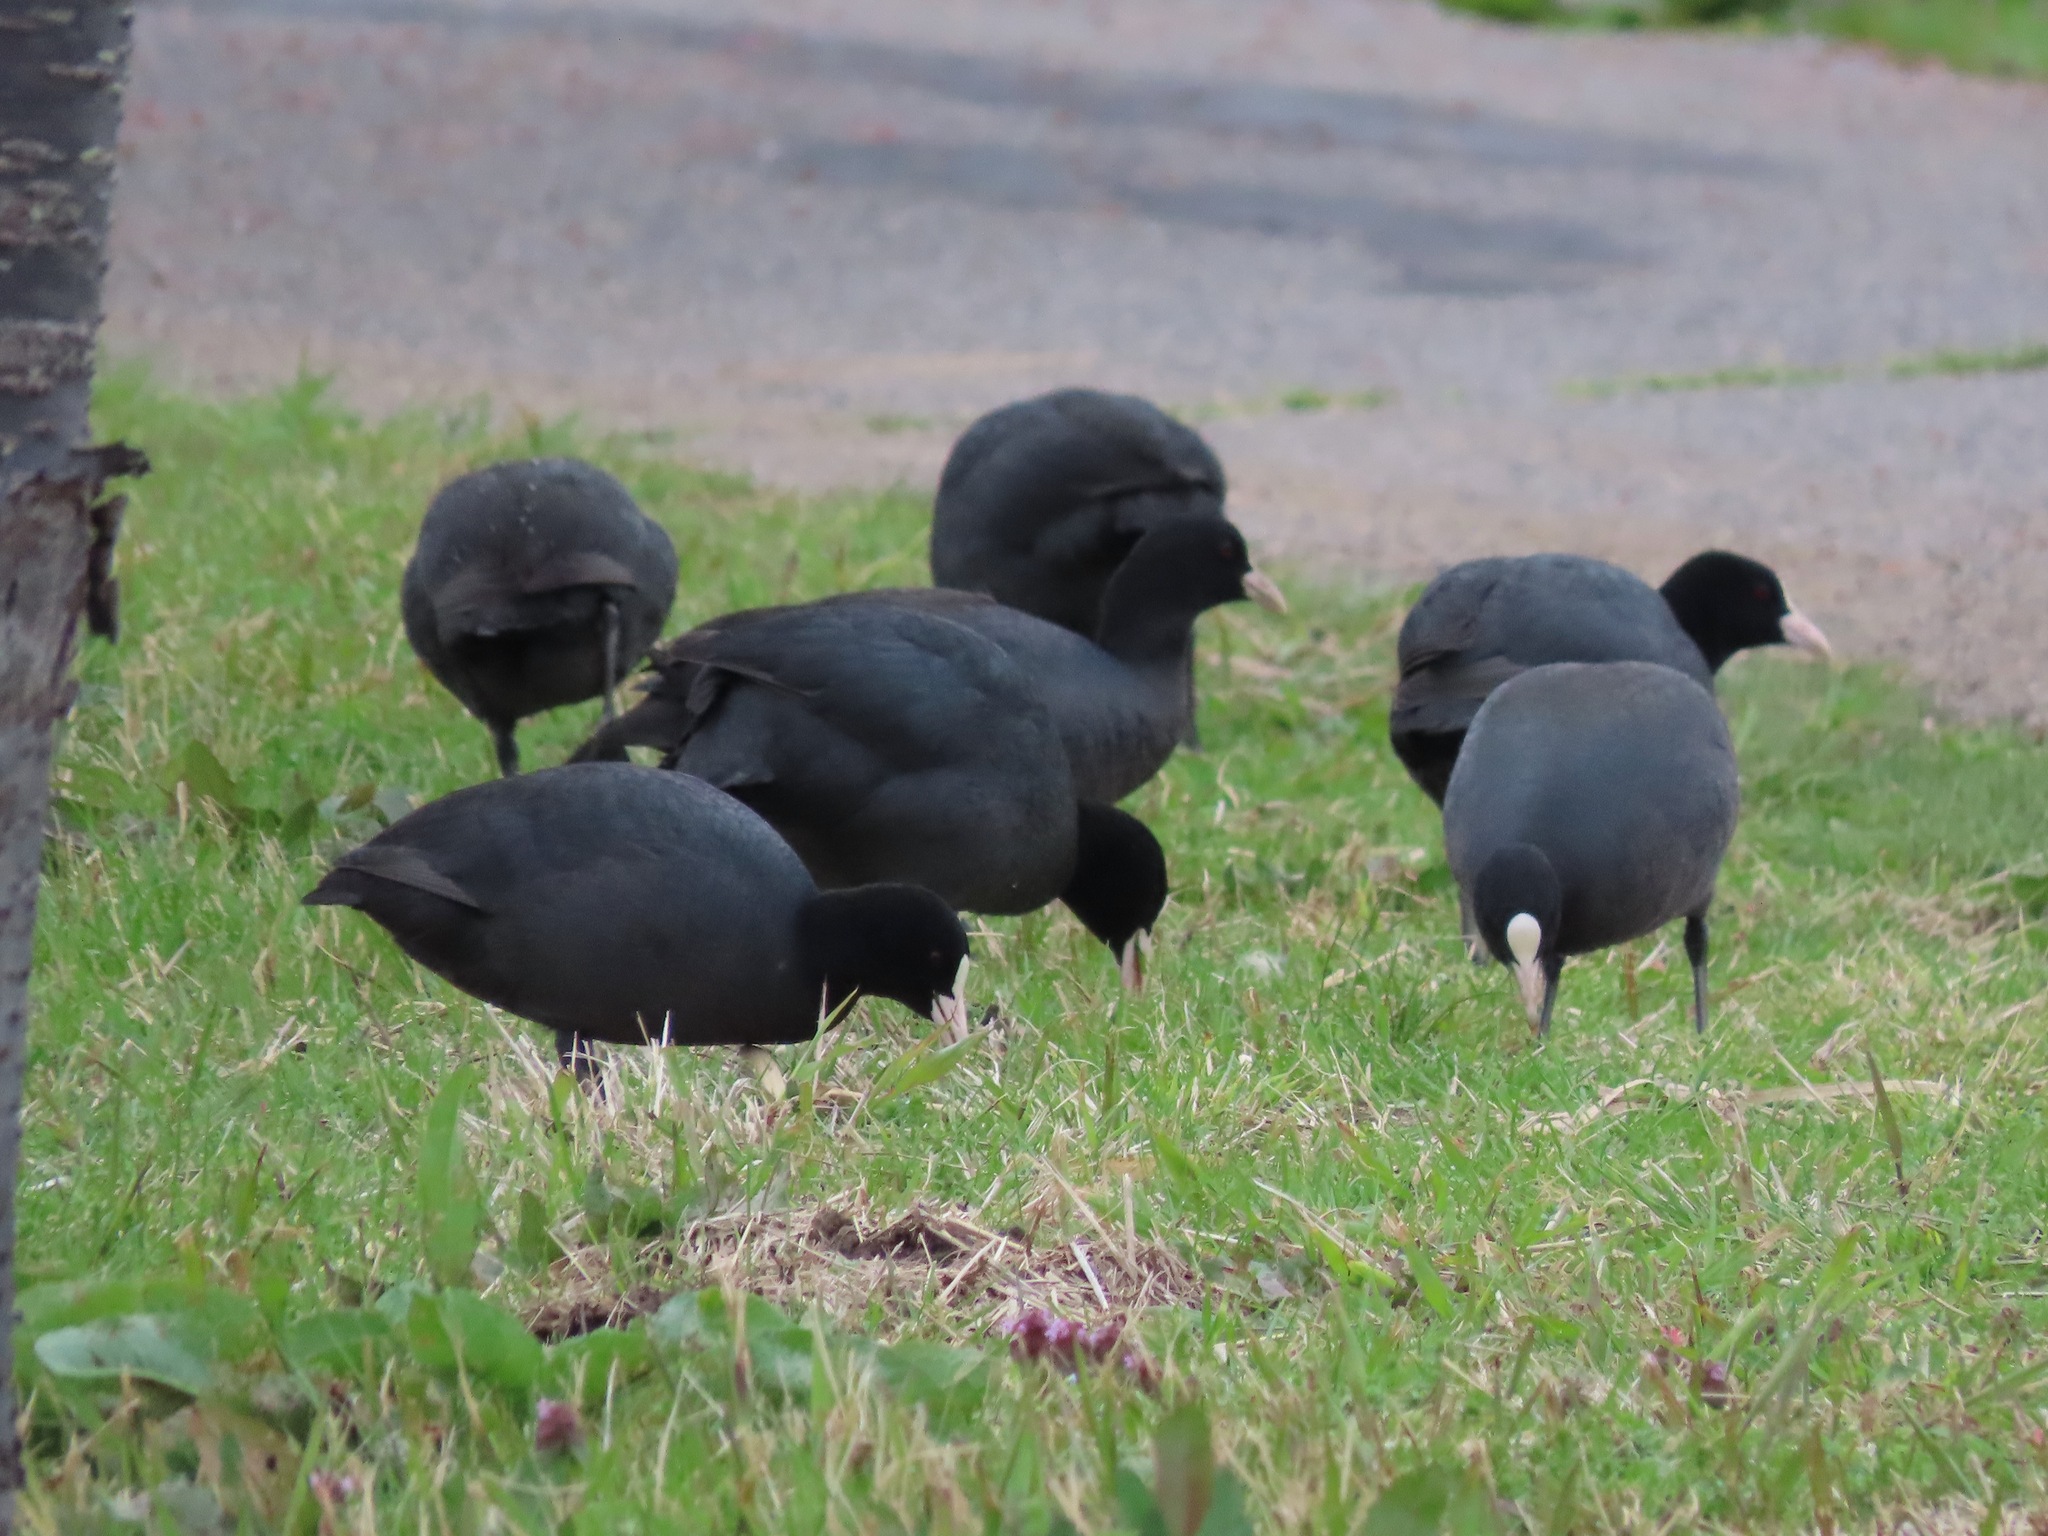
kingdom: Animalia
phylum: Chordata
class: Aves
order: Gruiformes
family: Rallidae
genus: Fulica
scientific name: Fulica atra
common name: Eurasian coot
